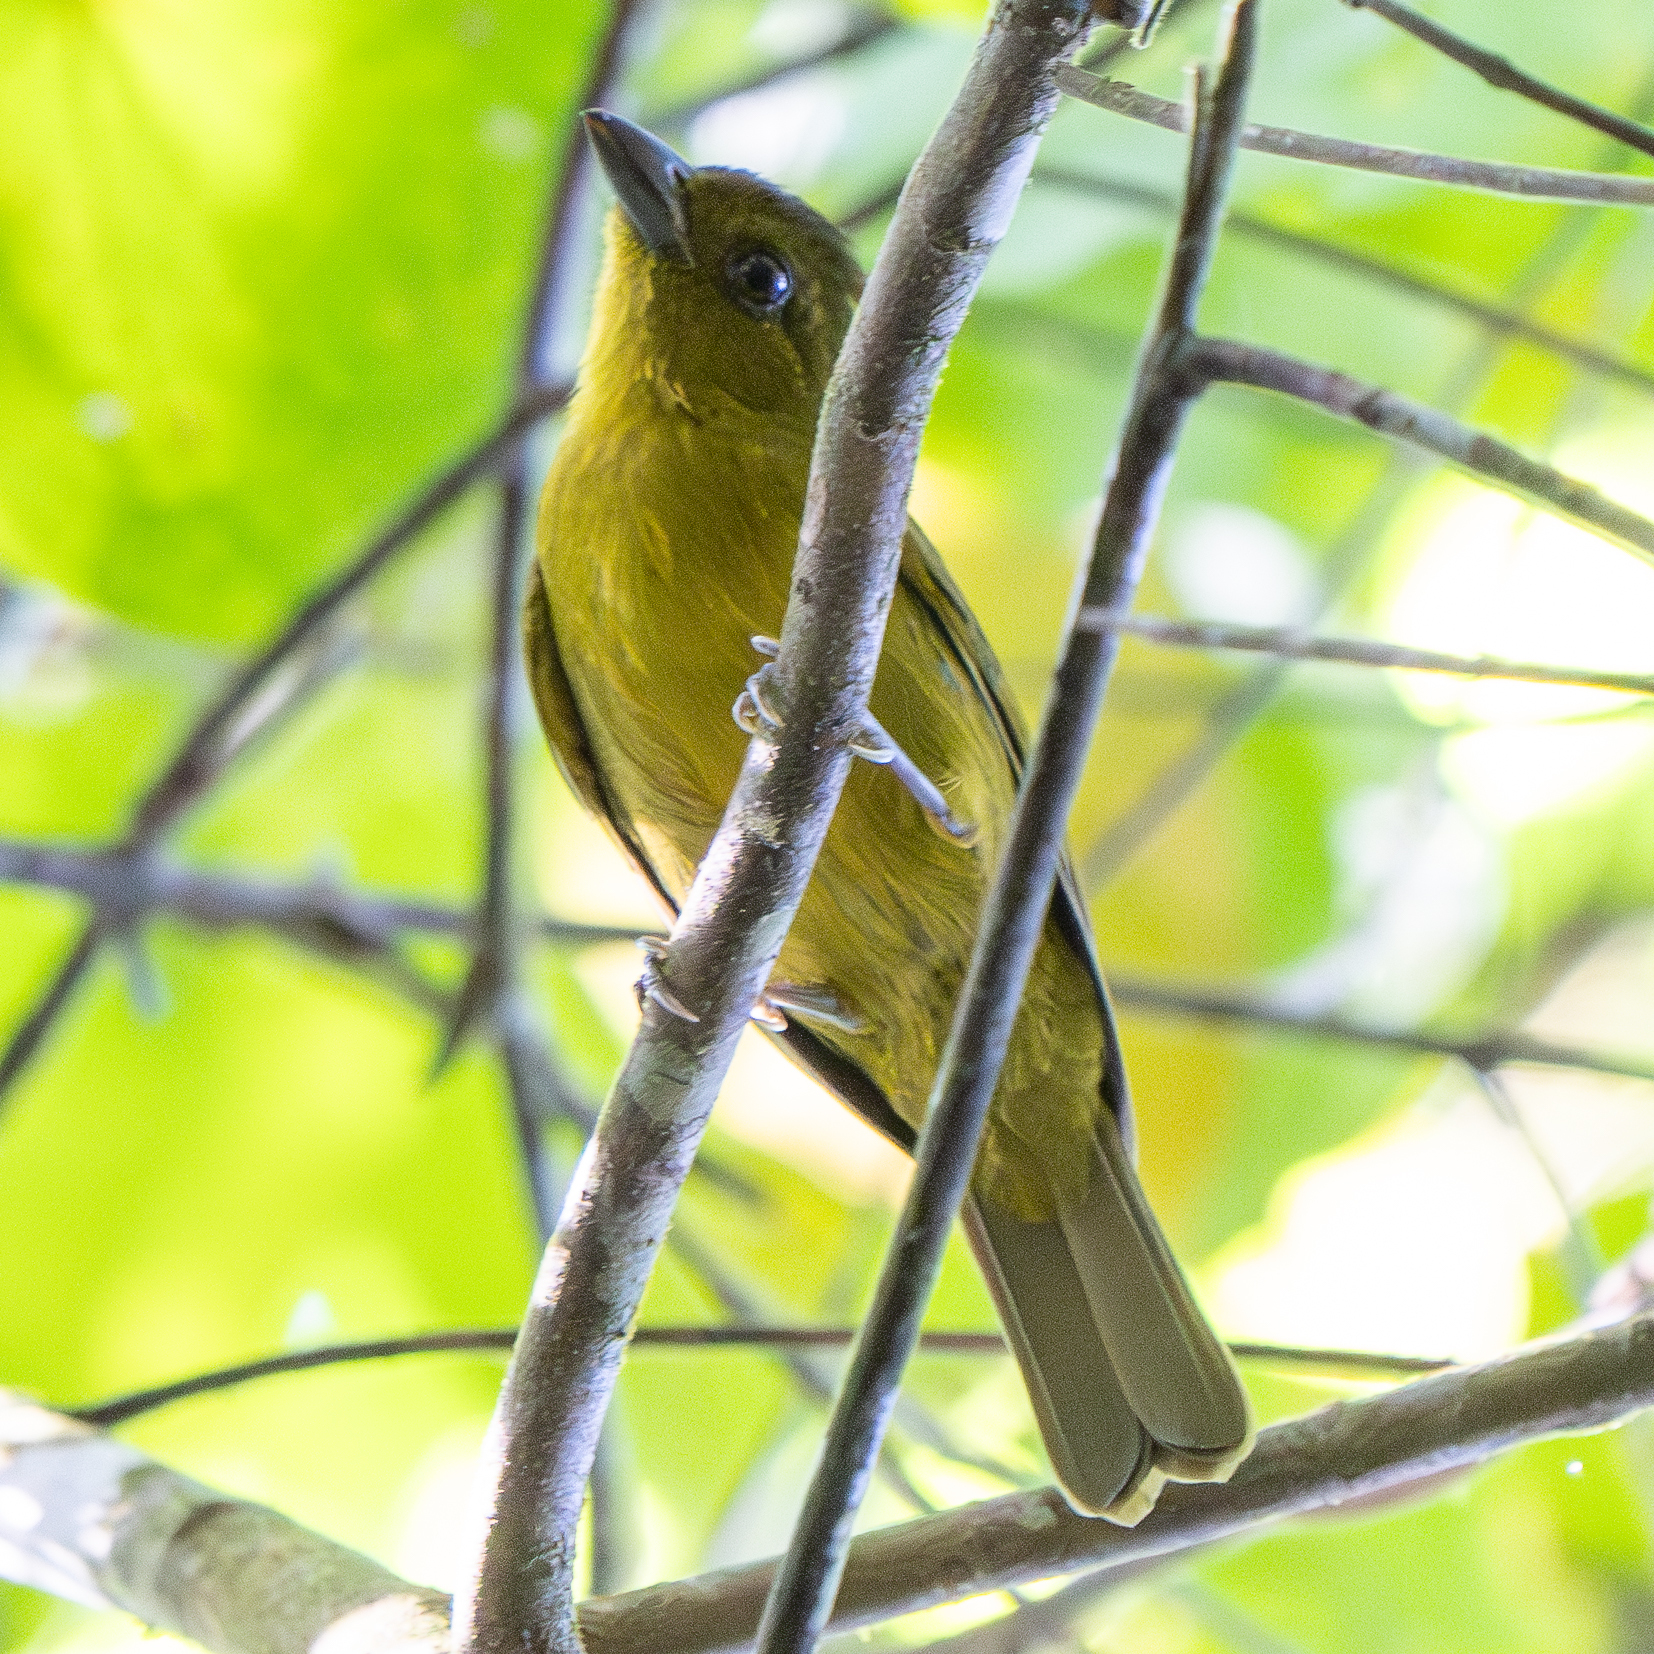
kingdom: Animalia
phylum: Chordata
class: Aves
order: Passeriformes
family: Cardinalidae
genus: Chlorothraupis
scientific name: Chlorothraupis carmioli
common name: Carmiol's tanager
